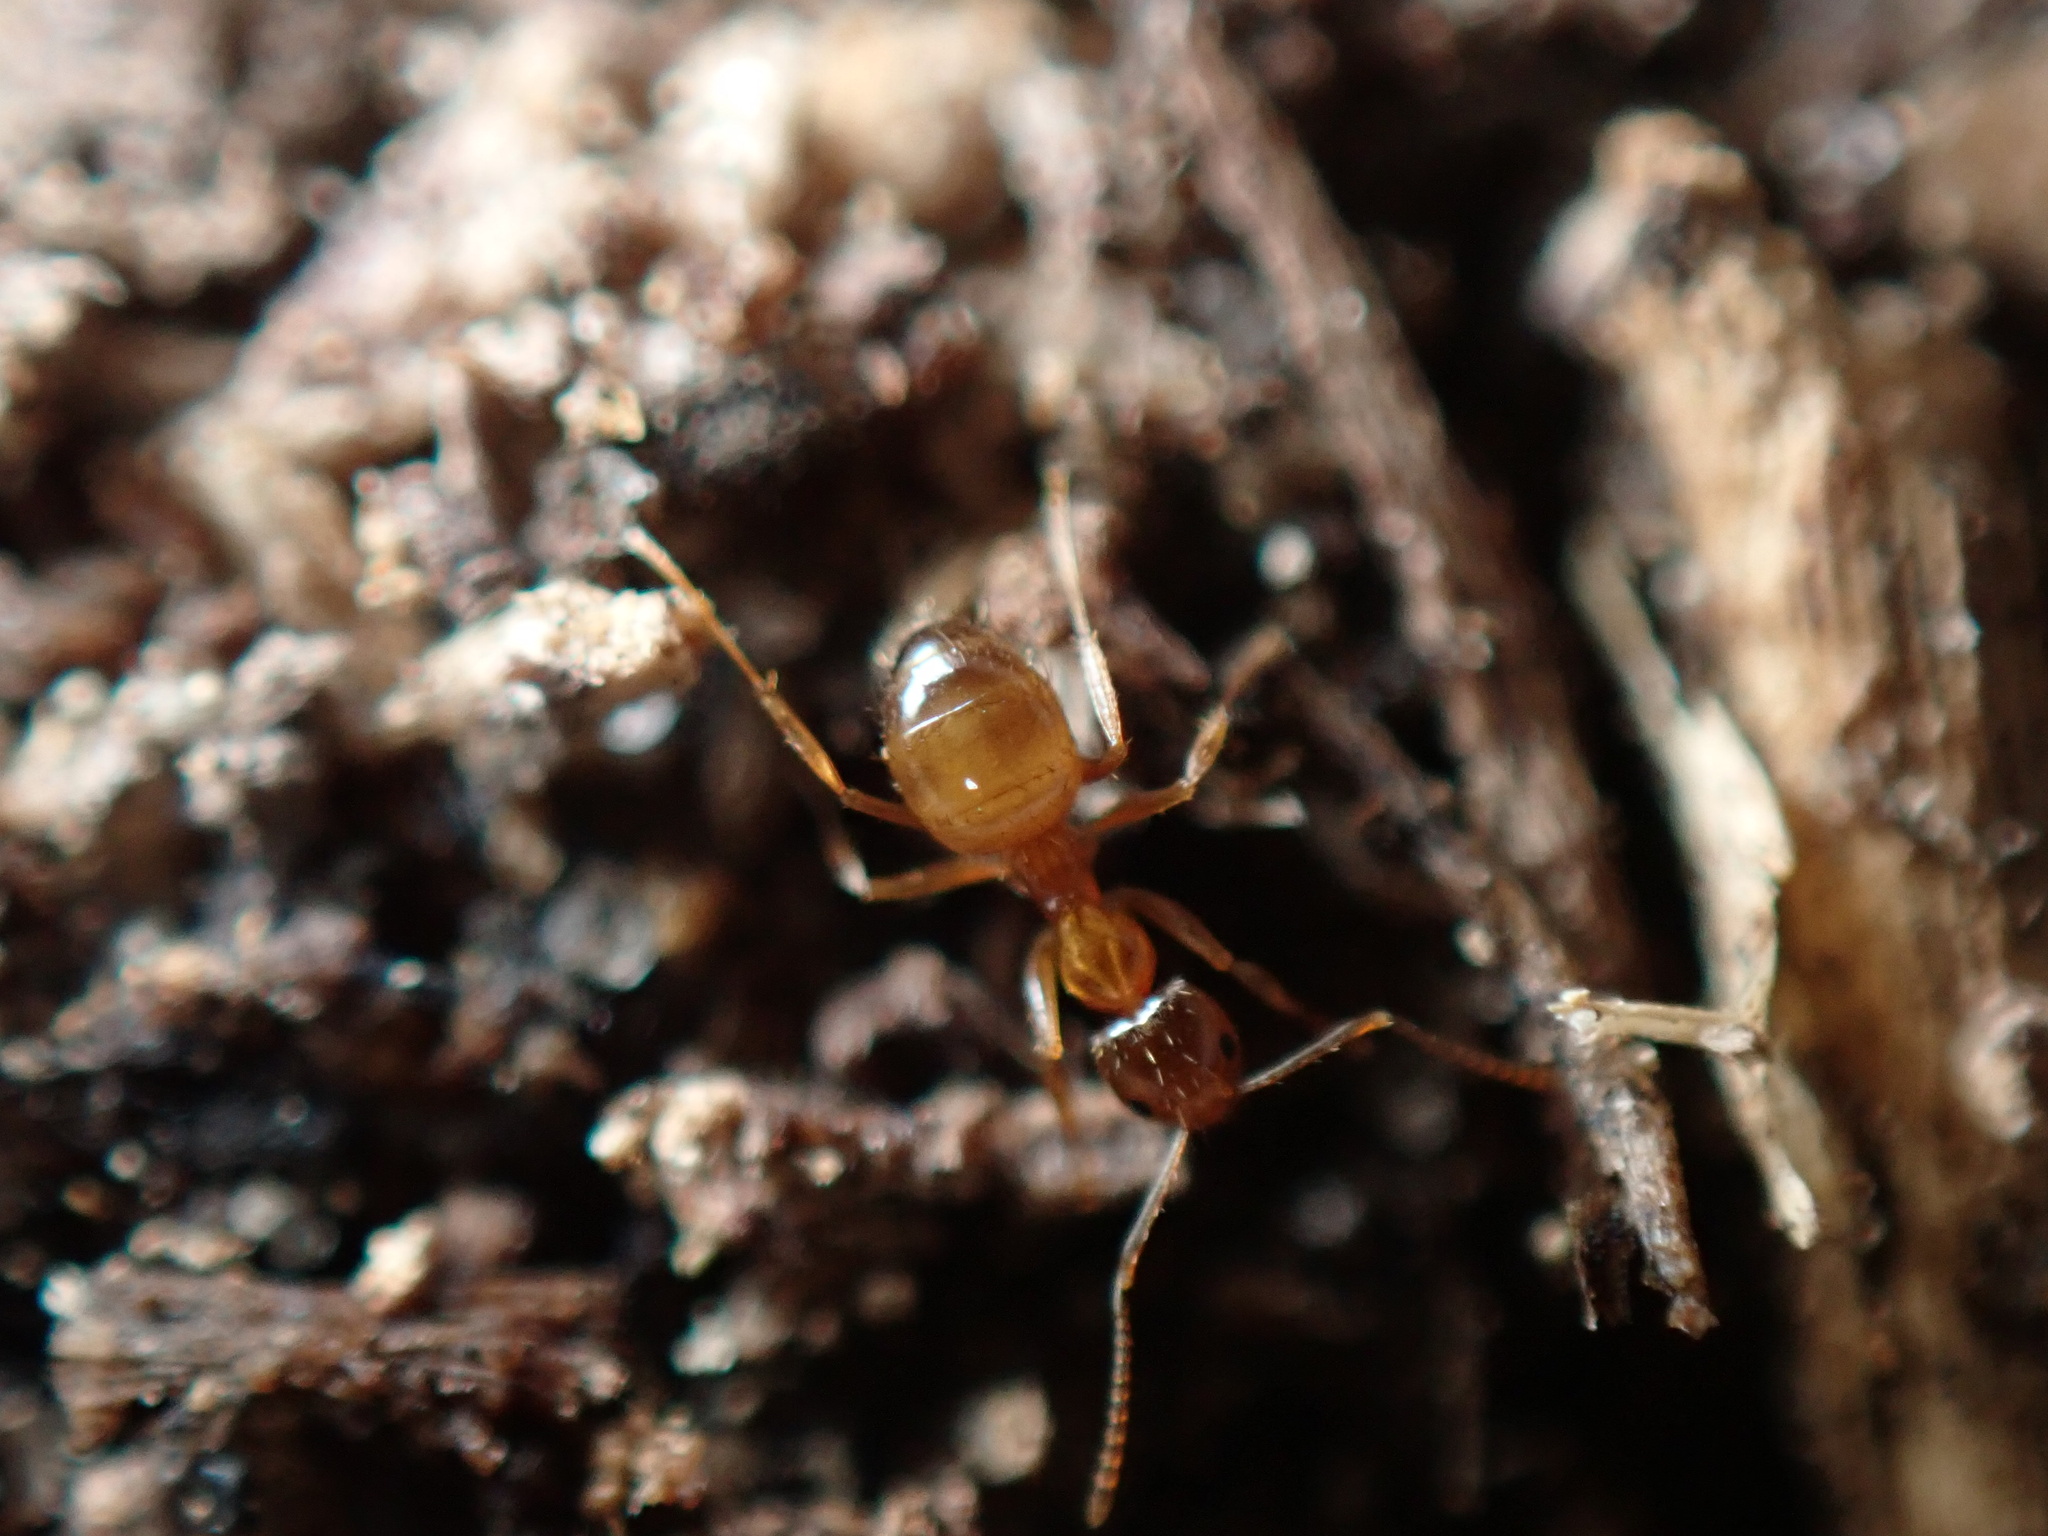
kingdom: Animalia
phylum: Arthropoda
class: Insecta
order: Hymenoptera
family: Formicidae
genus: Paratrechina
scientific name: Paratrechina flavipes
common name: Eastern asian formicine ant
